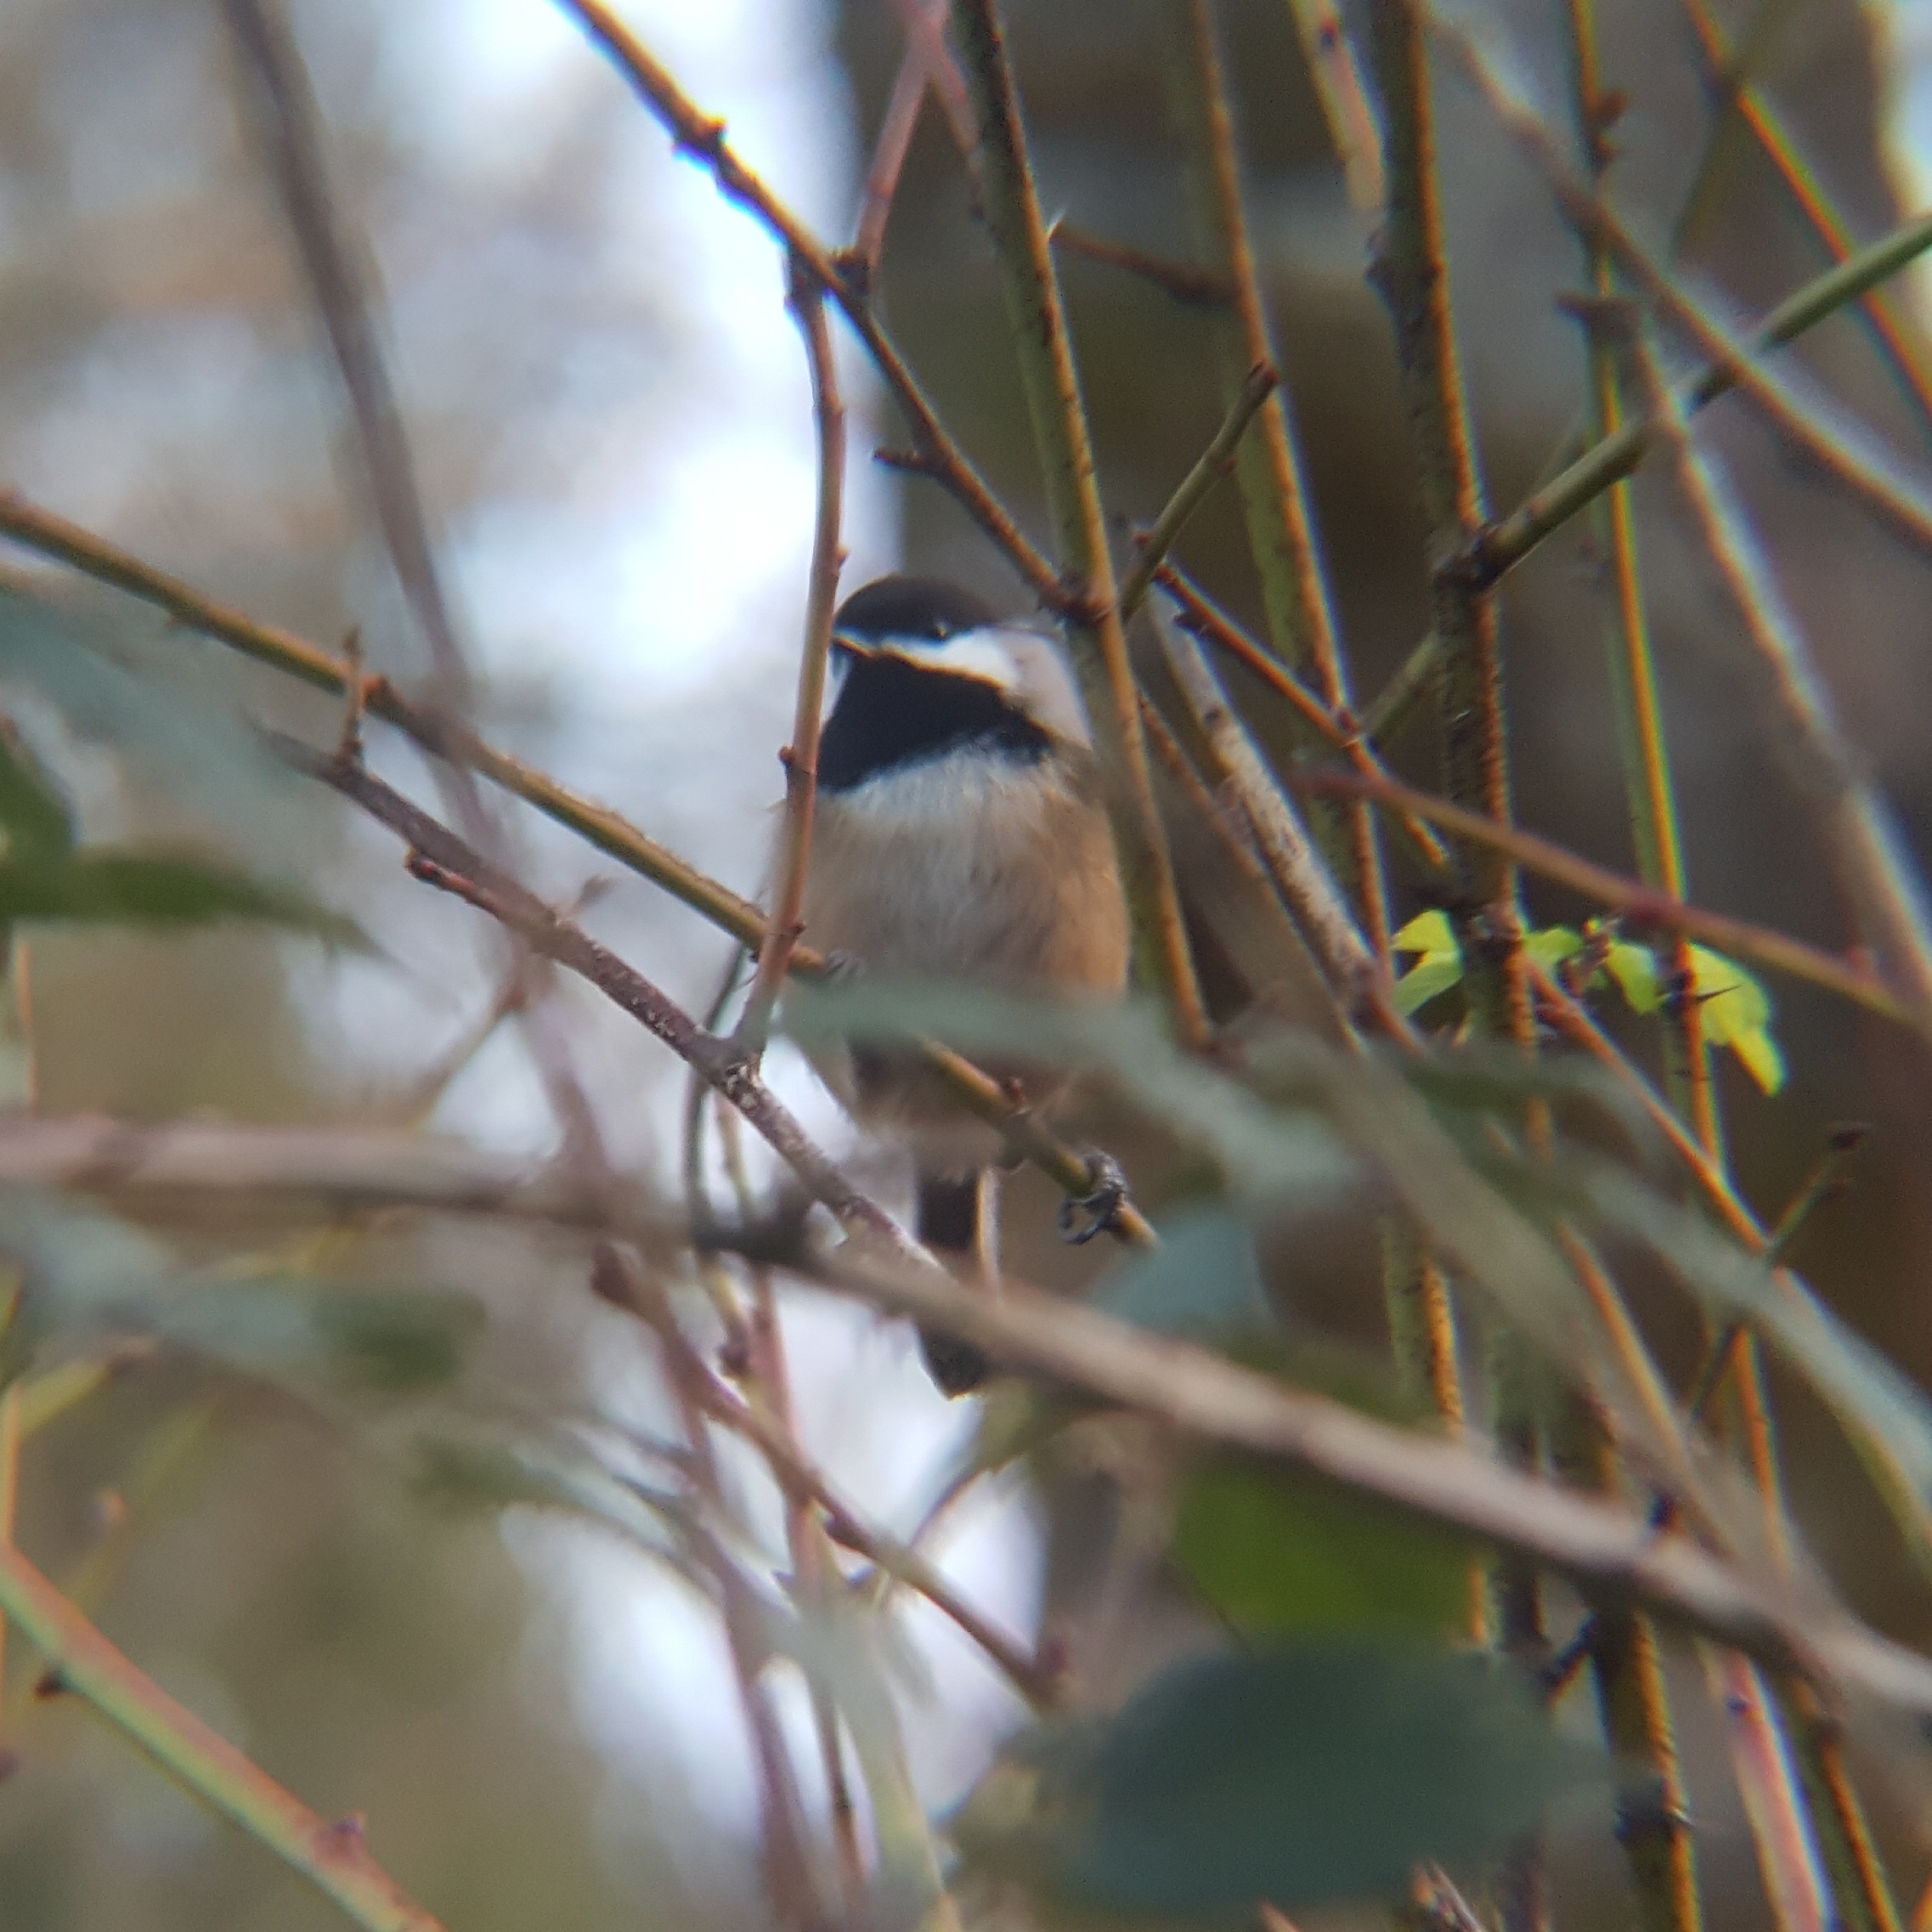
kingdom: Animalia
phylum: Chordata
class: Aves
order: Passeriformes
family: Paridae
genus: Poecile
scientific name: Poecile atricapillus
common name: Black-capped chickadee
